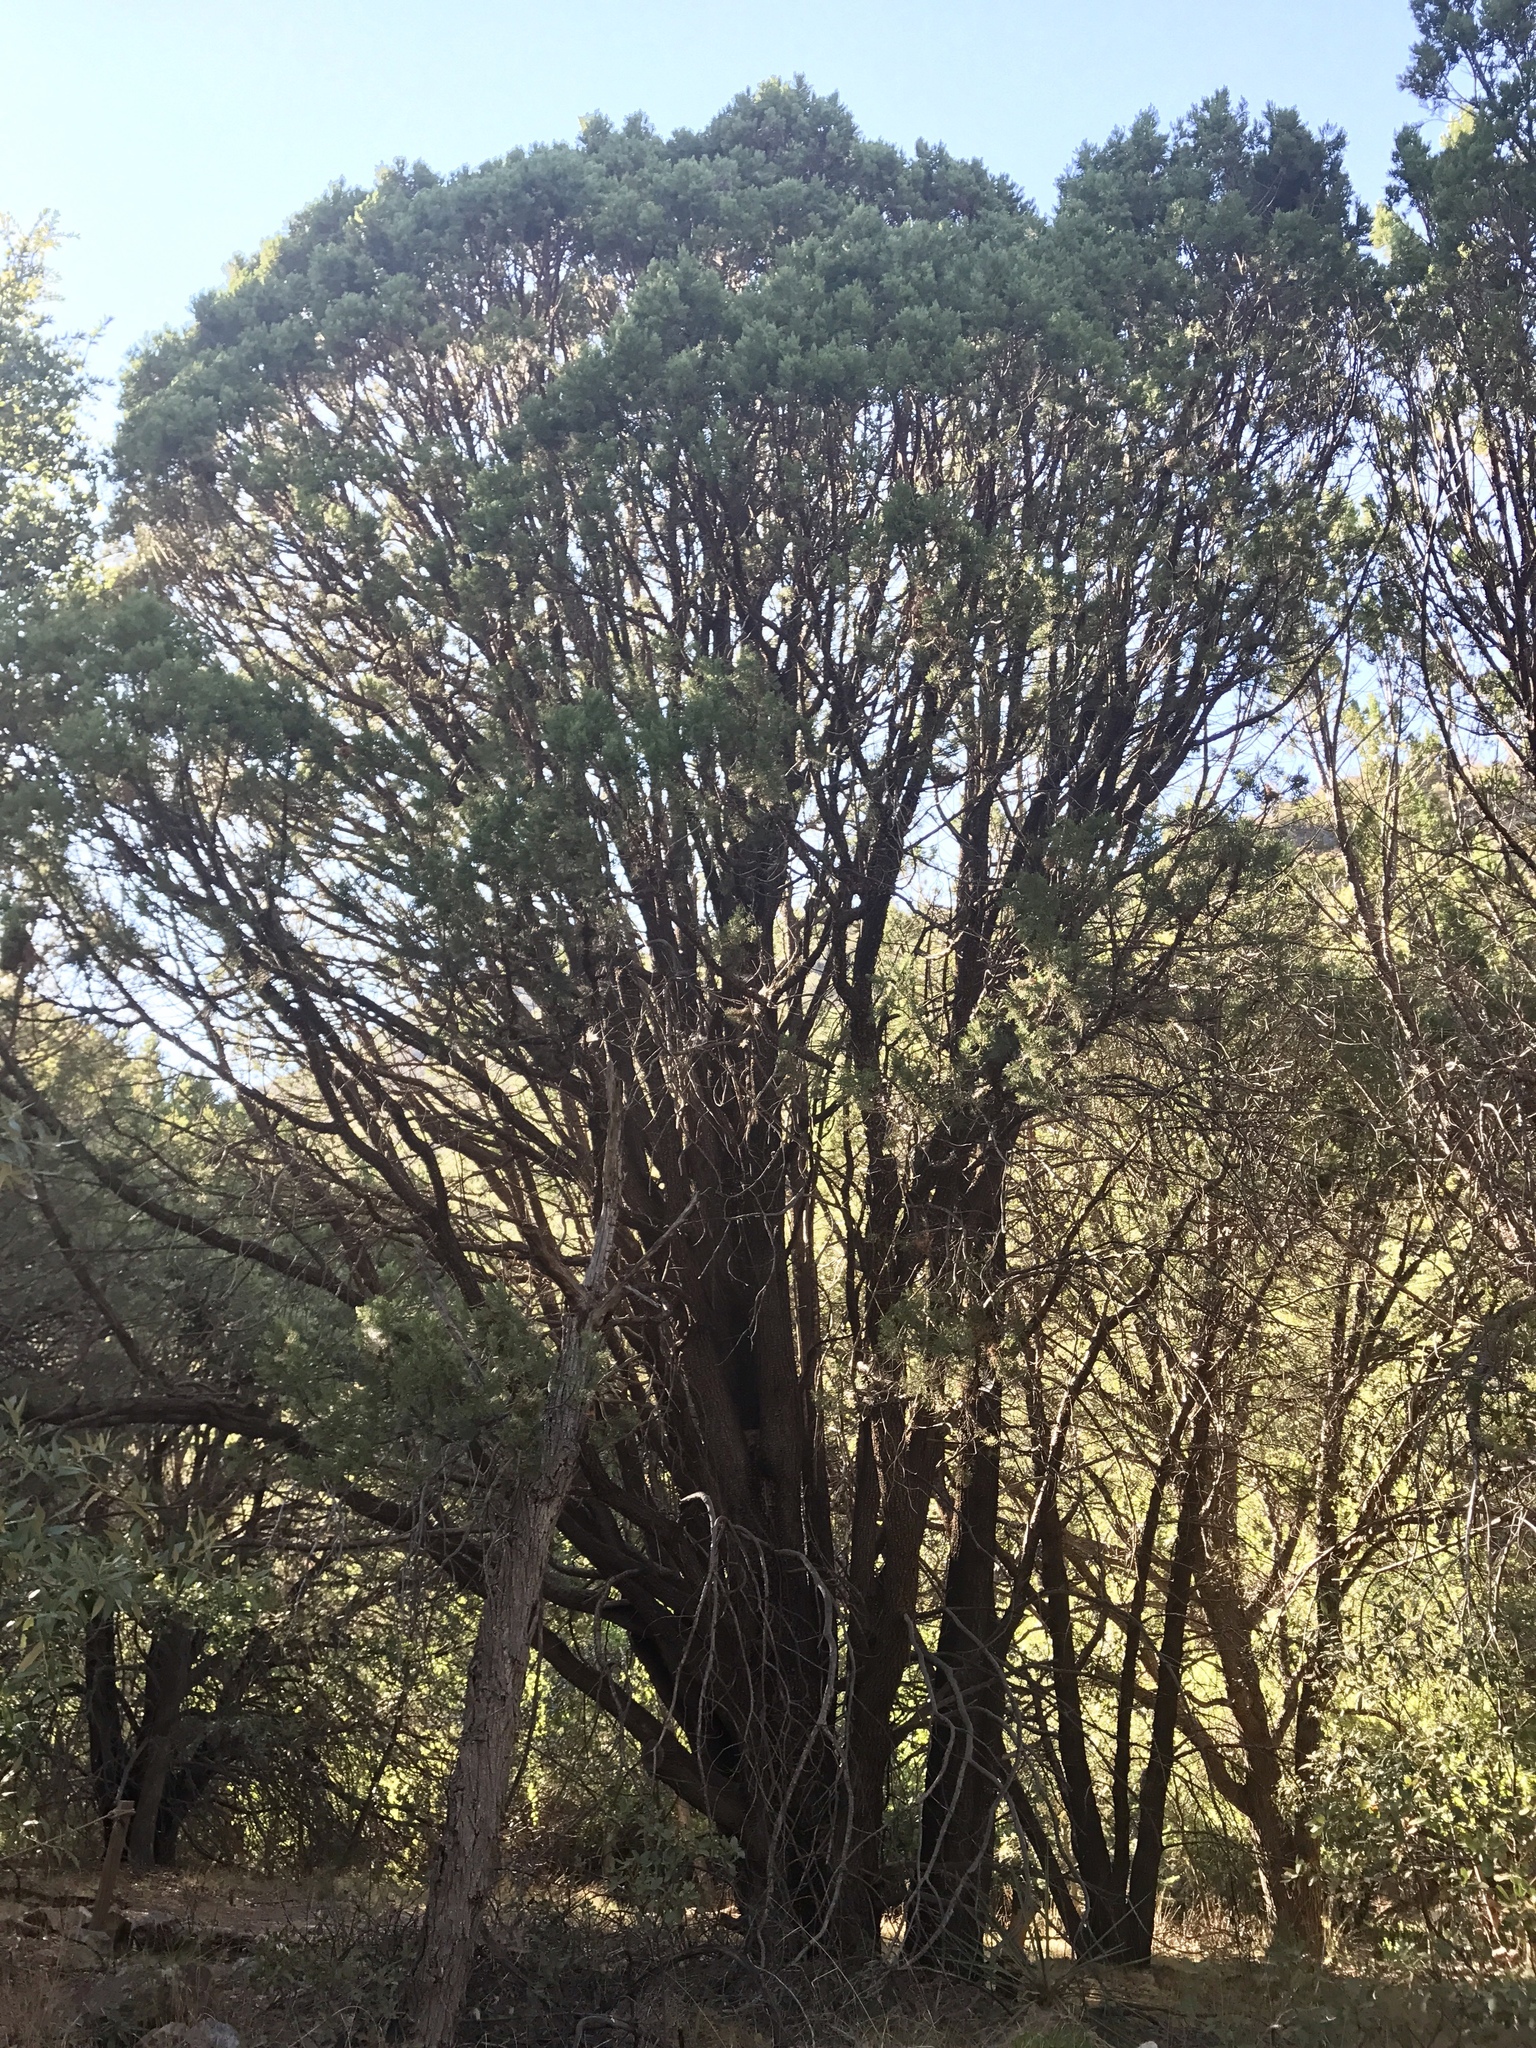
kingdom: Plantae
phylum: Tracheophyta
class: Pinopsida
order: Pinales
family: Cupressaceae
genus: Juniperus
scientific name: Juniperus deppeana
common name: Alligator juniper
